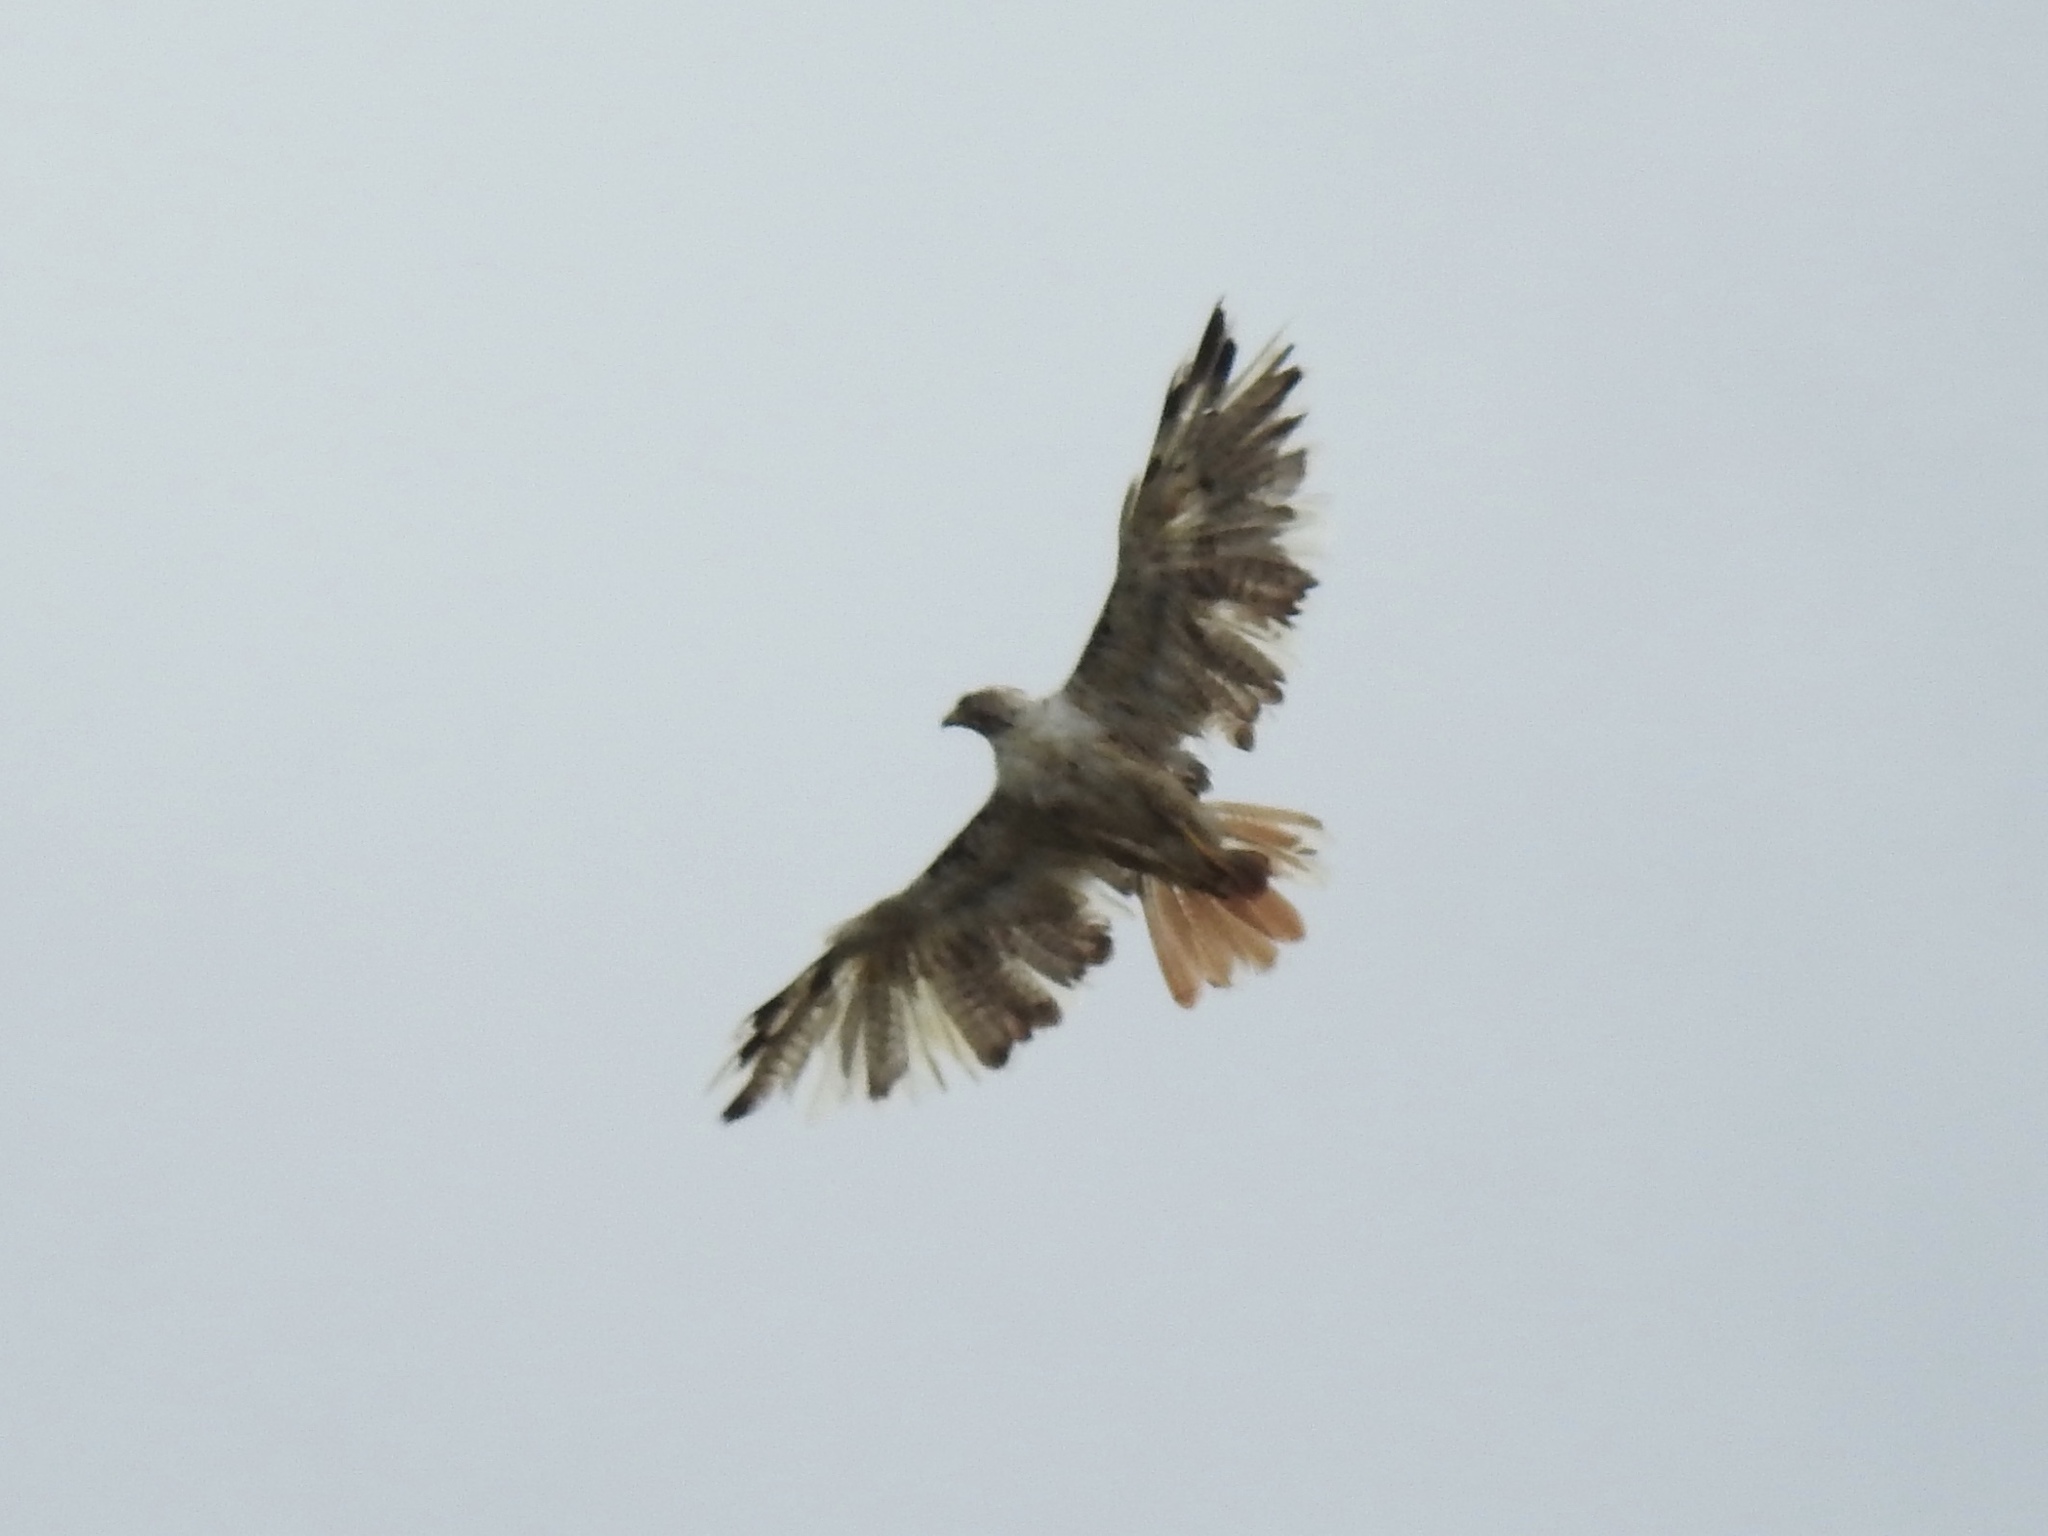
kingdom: Animalia
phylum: Chordata
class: Aves
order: Accipitriformes
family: Accipitridae
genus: Buteo
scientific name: Buteo jamaicensis
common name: Red-tailed hawk
